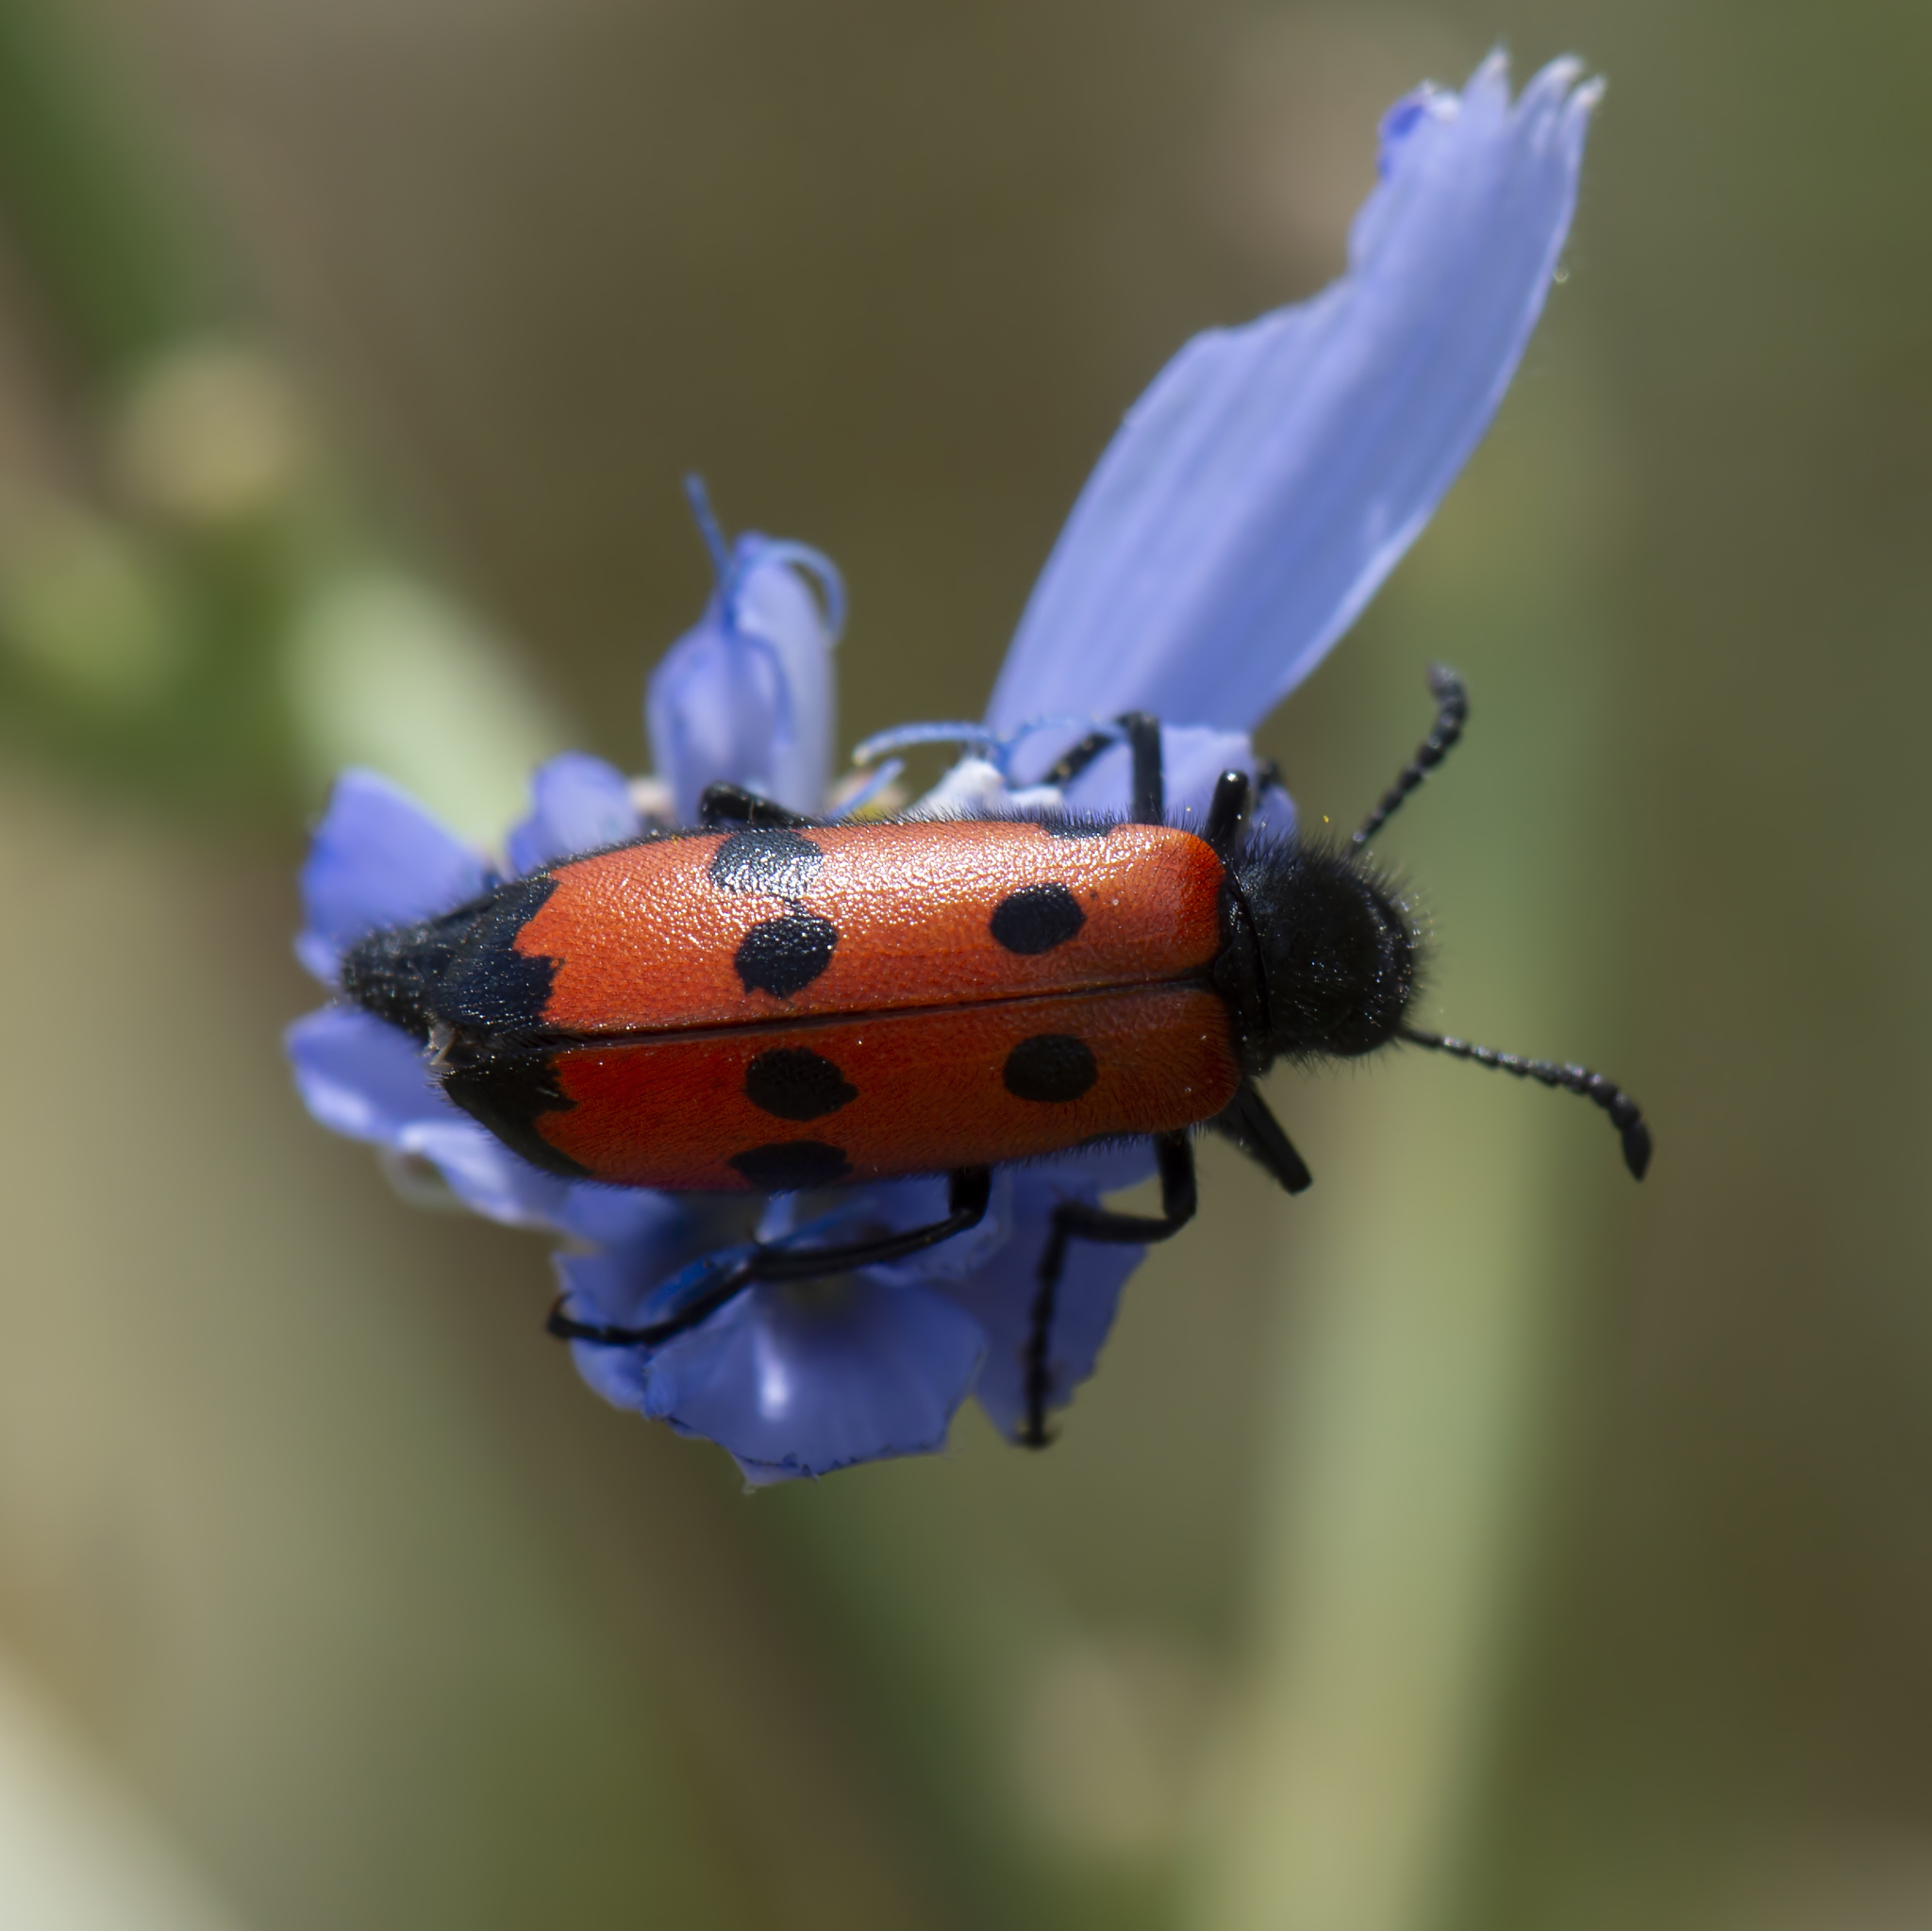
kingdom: Animalia
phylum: Arthropoda
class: Insecta
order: Coleoptera
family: Meloidae
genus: Mylabris
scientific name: Mylabris quadripunctata
